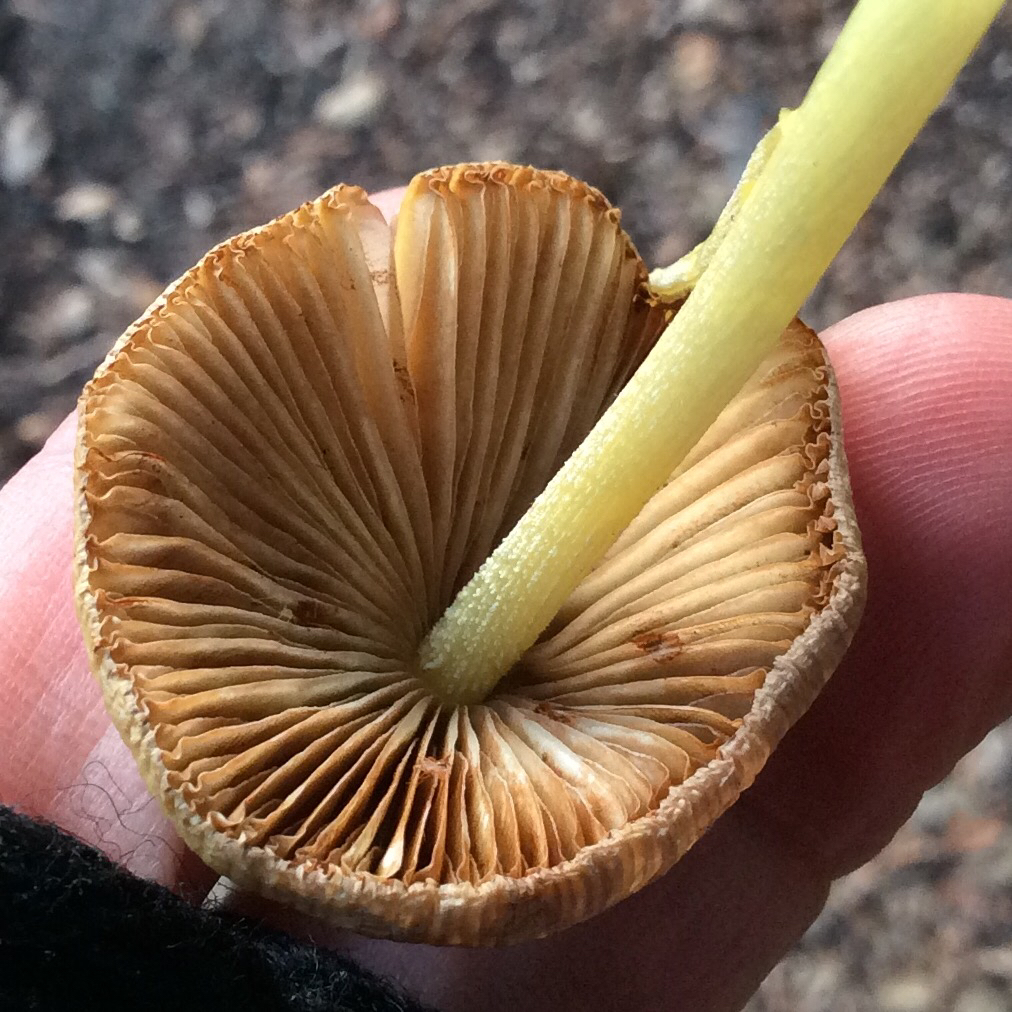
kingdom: Fungi
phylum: Basidiomycota
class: Agaricomycetes
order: Agaricales
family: Bolbitiaceae
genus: Bolbitius
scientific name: Bolbitius titubans
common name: Yellow fieldcap
